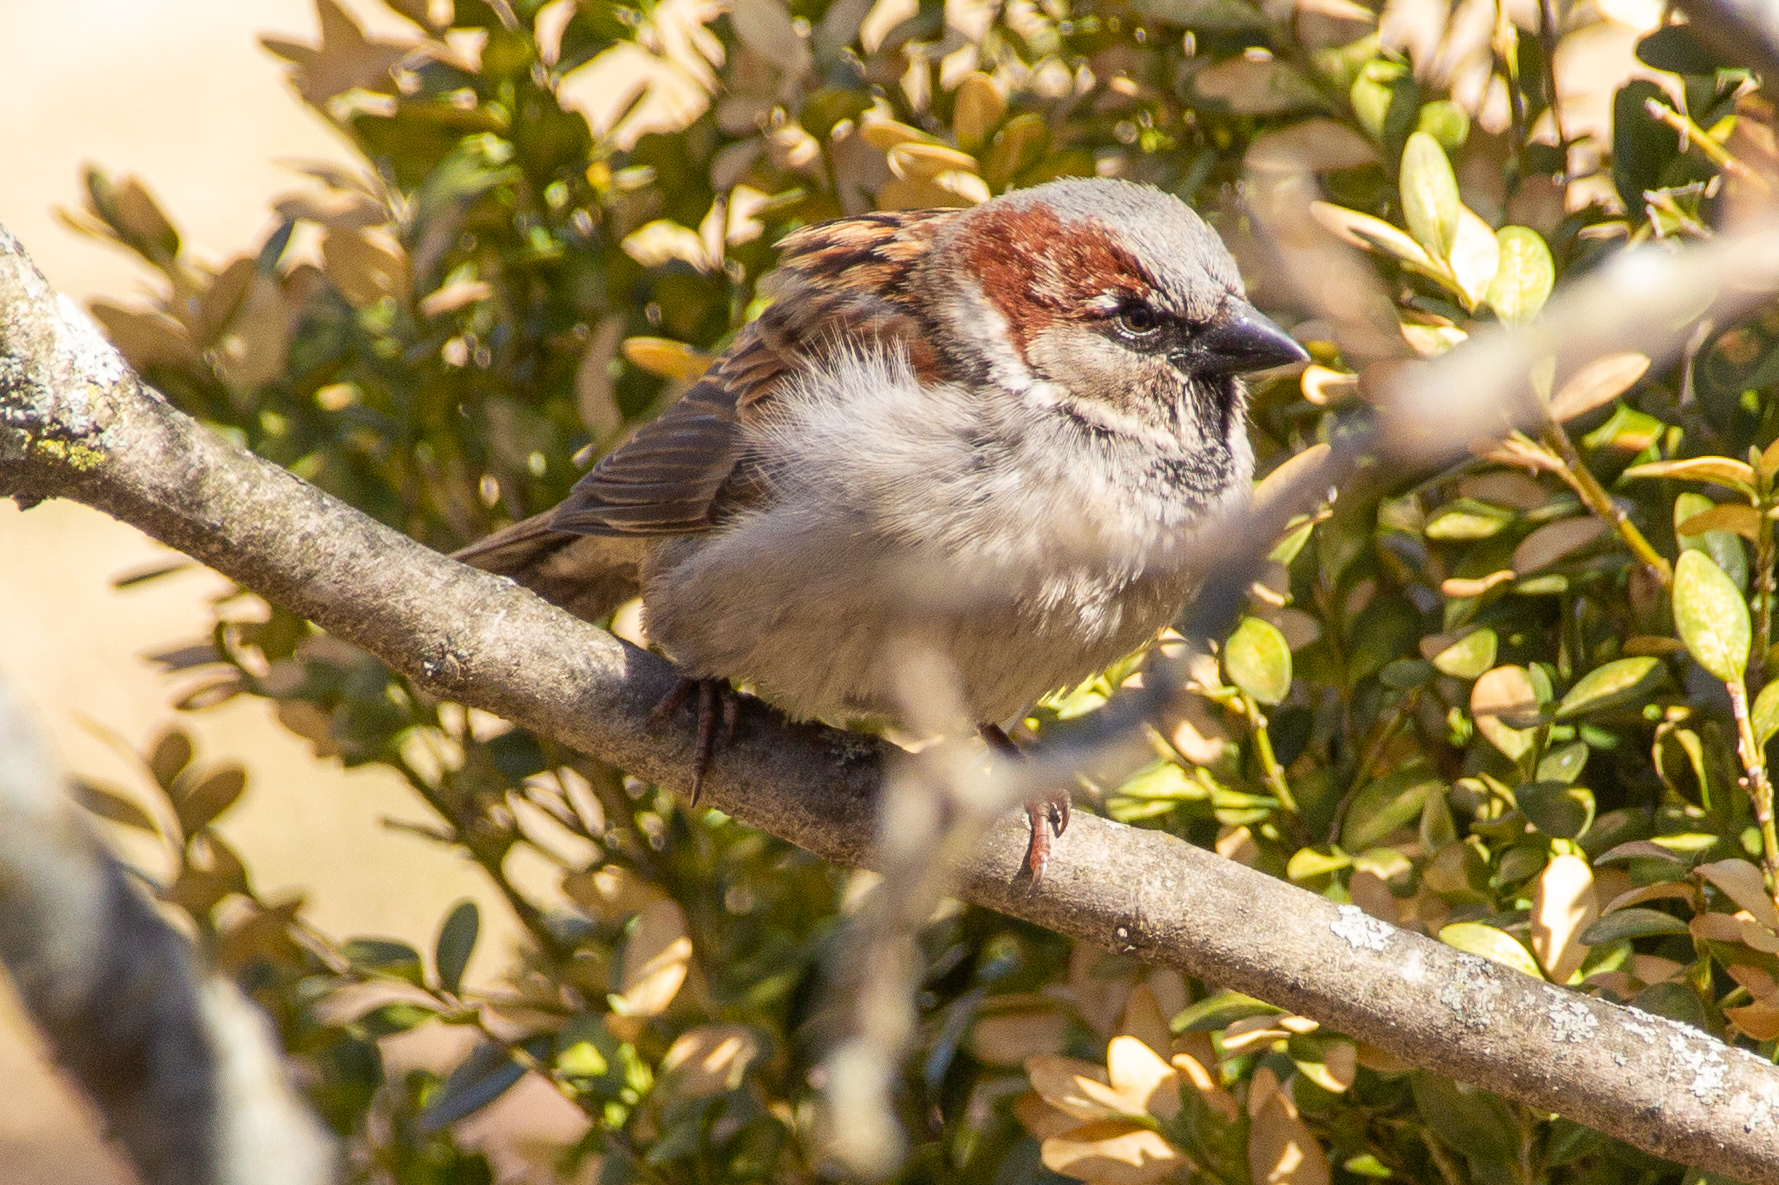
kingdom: Animalia
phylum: Chordata
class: Aves
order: Passeriformes
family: Passeridae
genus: Passer
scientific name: Passer domesticus
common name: House sparrow
